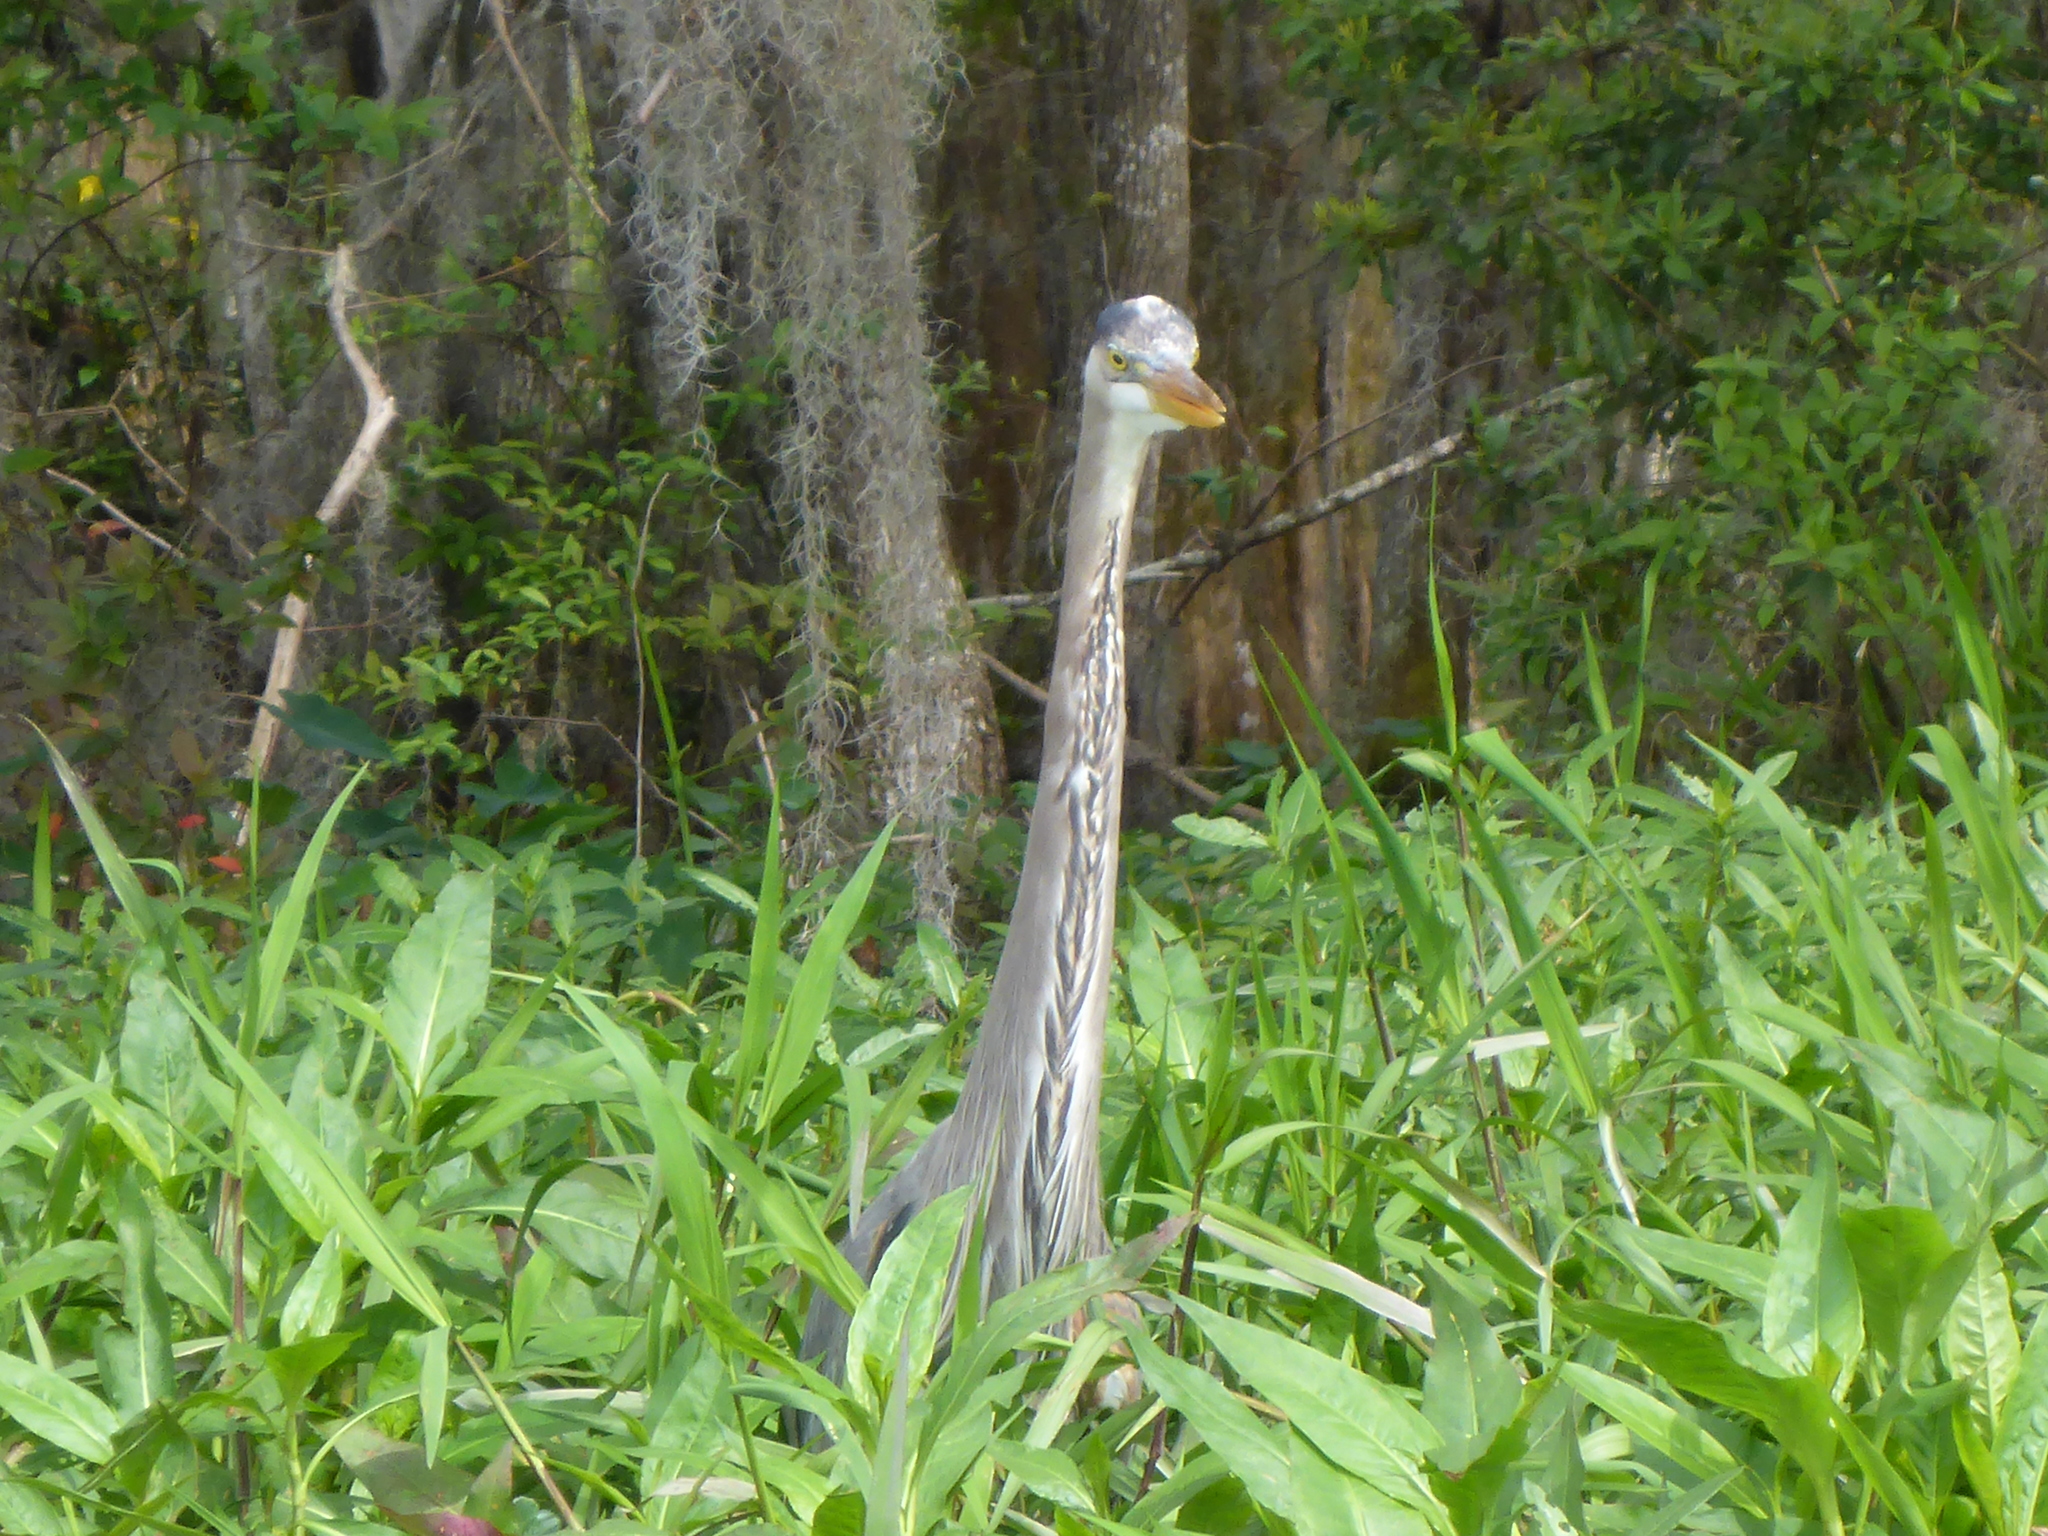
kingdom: Animalia
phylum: Chordata
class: Aves
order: Pelecaniformes
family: Ardeidae
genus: Ardea
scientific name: Ardea herodias
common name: Great blue heron
